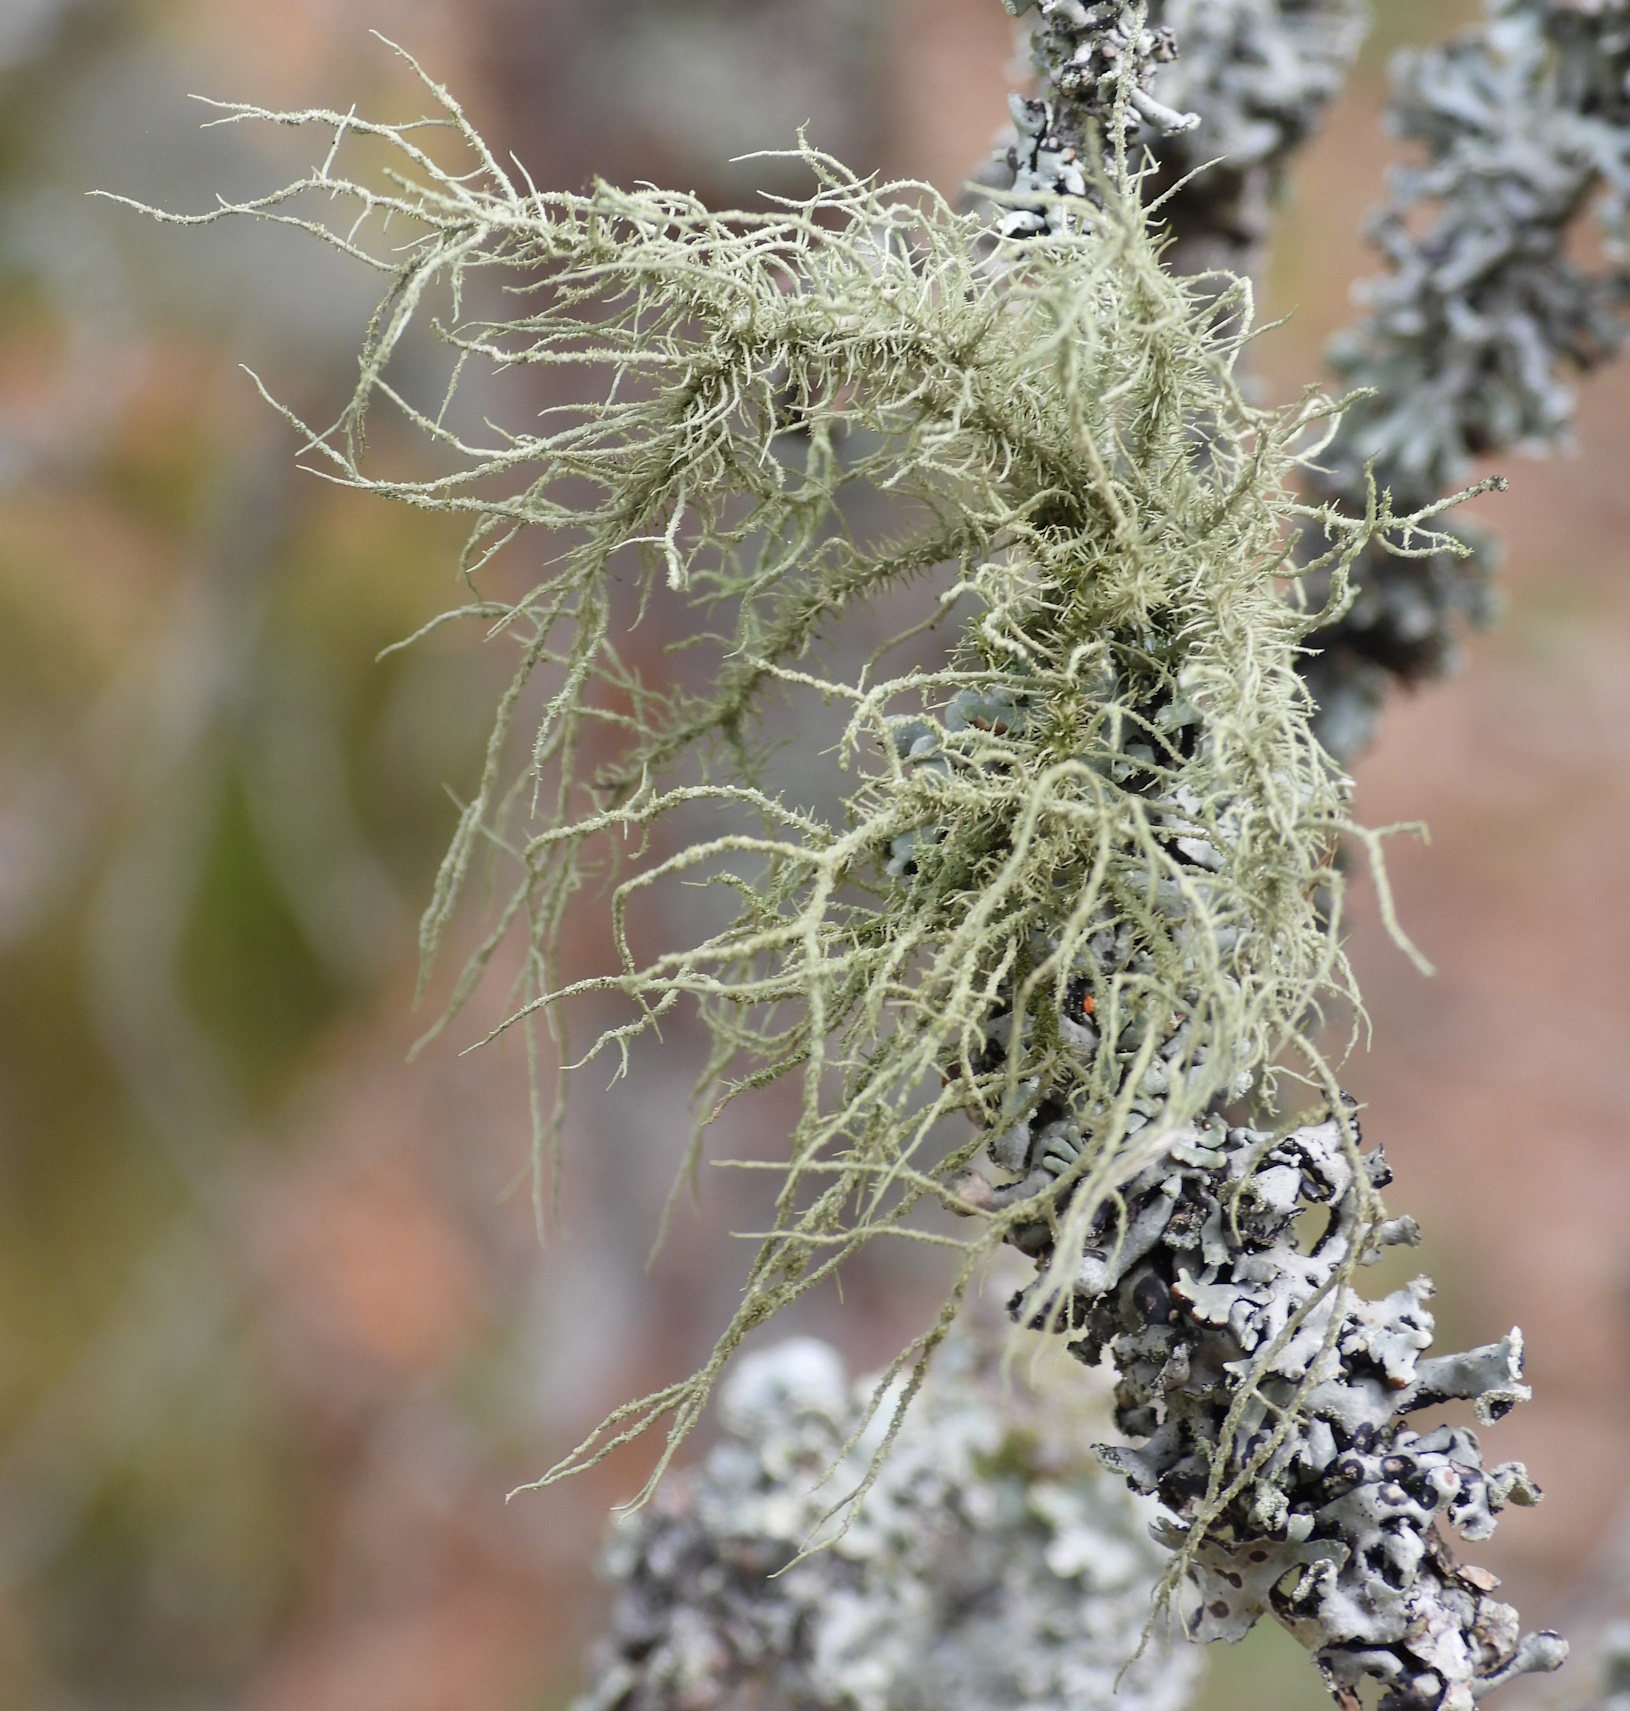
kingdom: Fungi
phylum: Ascomycota
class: Lecanoromycetes
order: Lecanorales
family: Parmeliaceae
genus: Usnea
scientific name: Usnea hirta
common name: Bristly beard lichen
